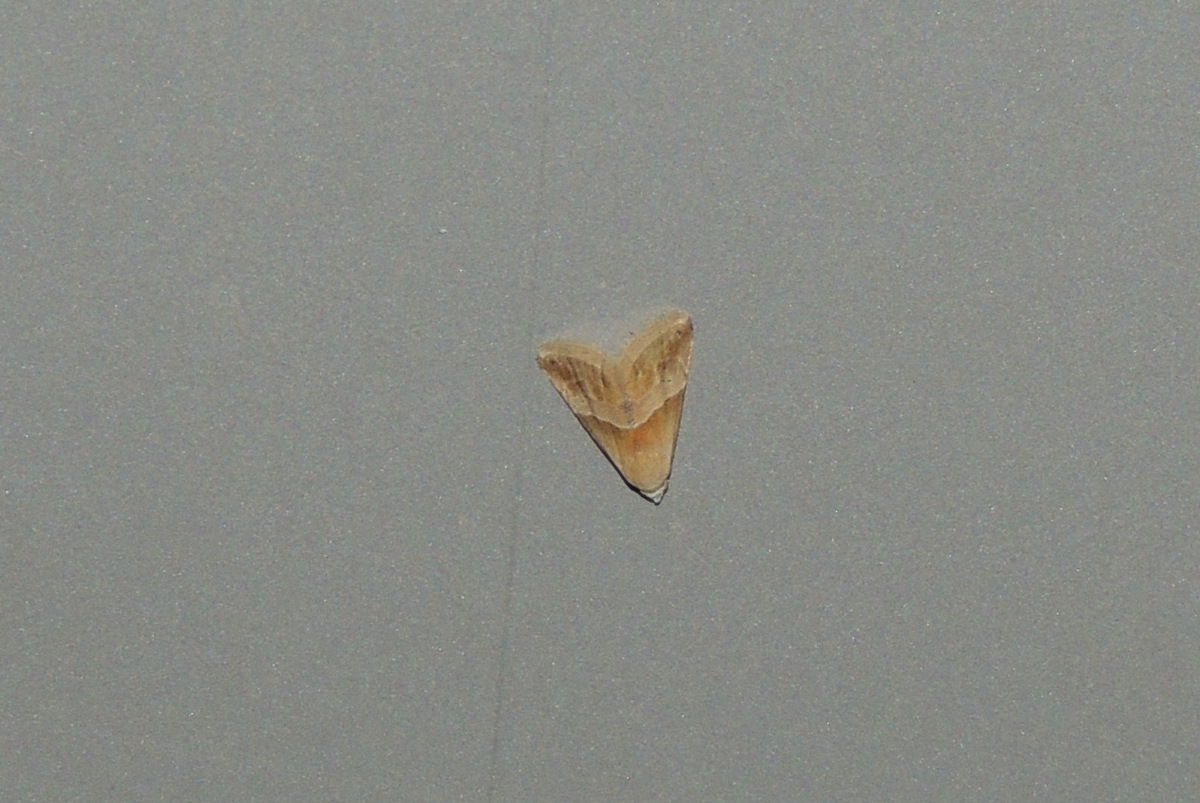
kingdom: Animalia
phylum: Arthropoda
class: Insecta
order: Lepidoptera
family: Noctuidae
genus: Eublemma
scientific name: Eublemma parva
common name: Small marbled
